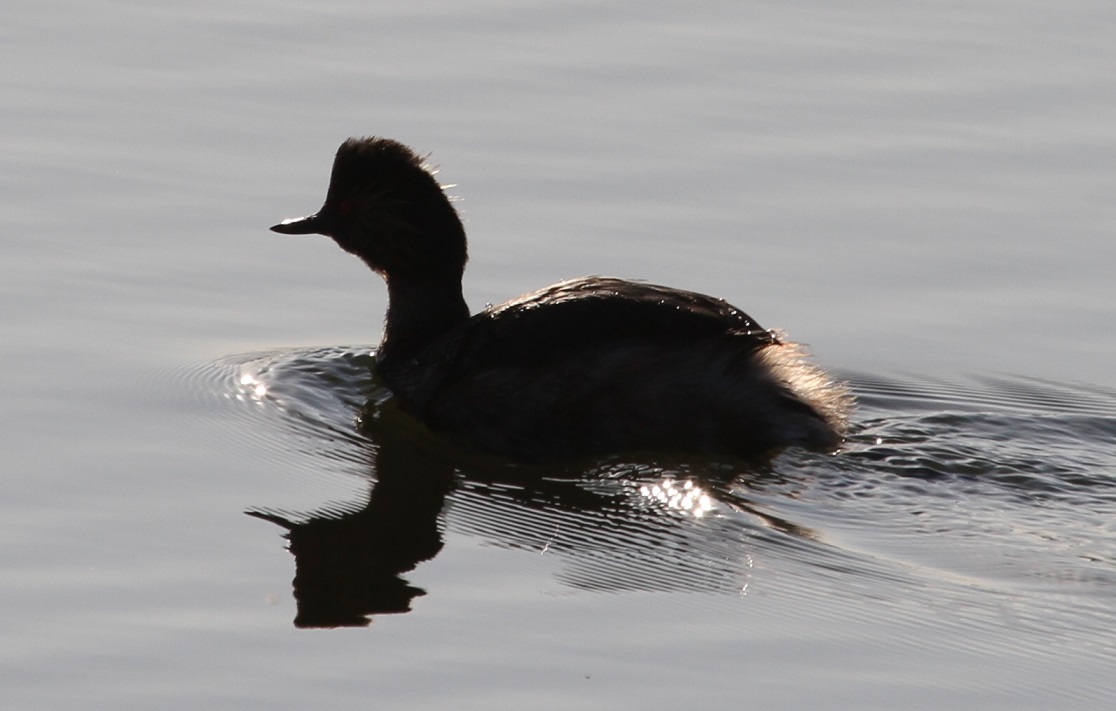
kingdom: Animalia
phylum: Chordata
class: Aves
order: Podicipediformes
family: Podicipedidae
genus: Podiceps
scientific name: Podiceps nigricollis
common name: Black-necked grebe
